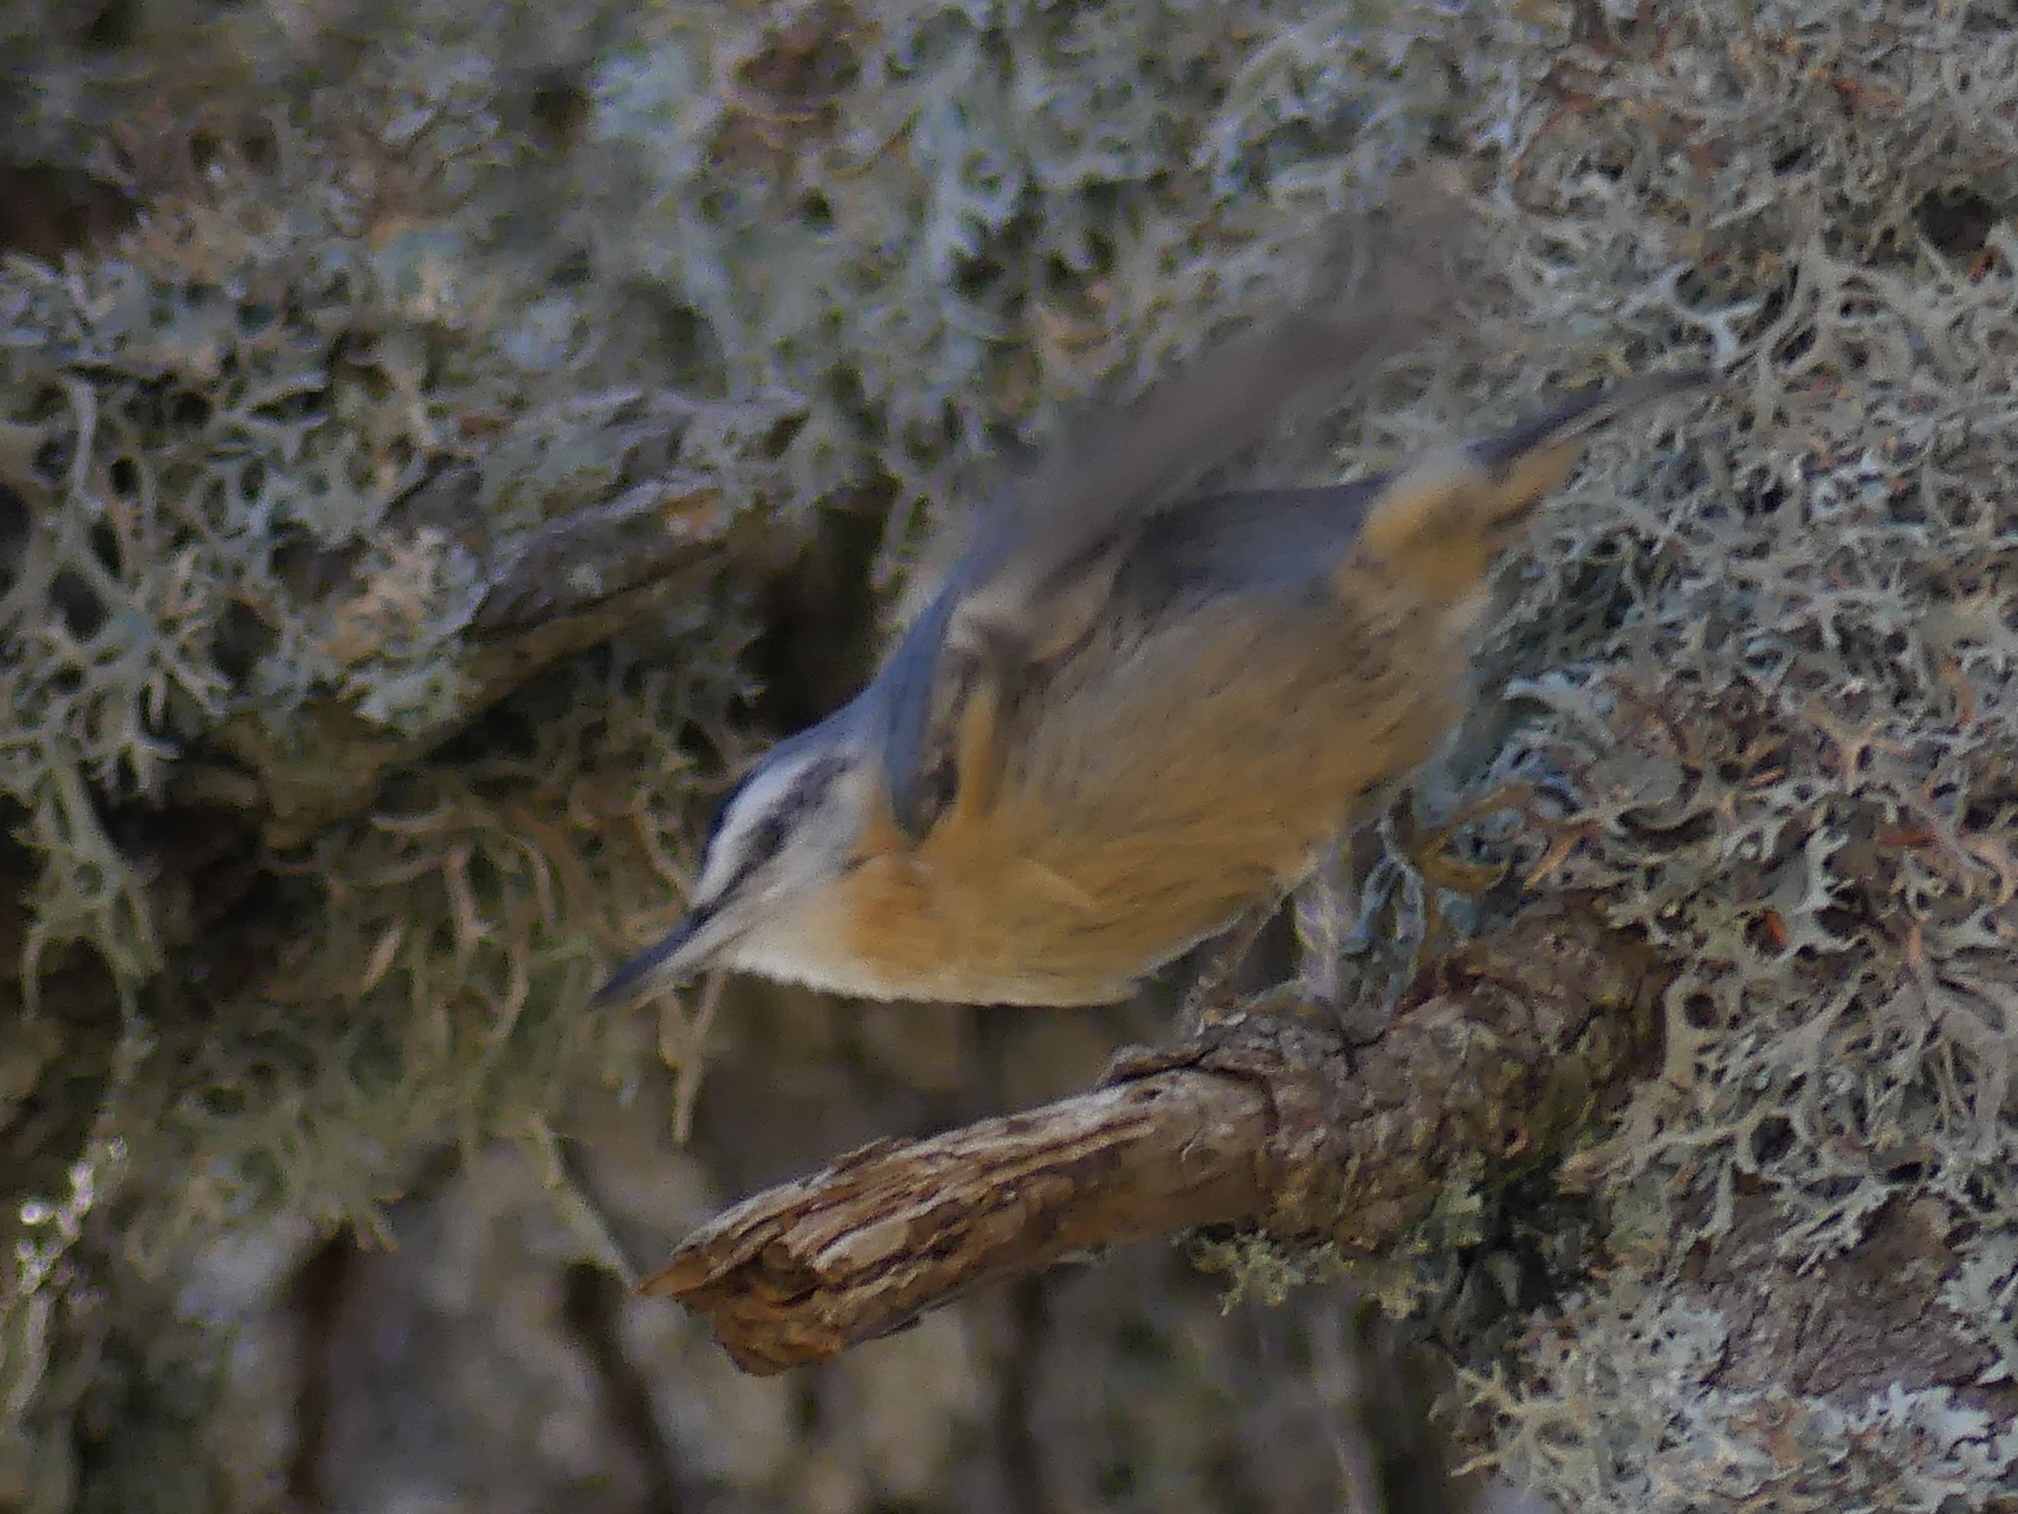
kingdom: Animalia
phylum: Chordata
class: Aves
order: Passeriformes
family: Sittidae
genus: Sitta
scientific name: Sitta ledanti
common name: Algerian nuthatch
